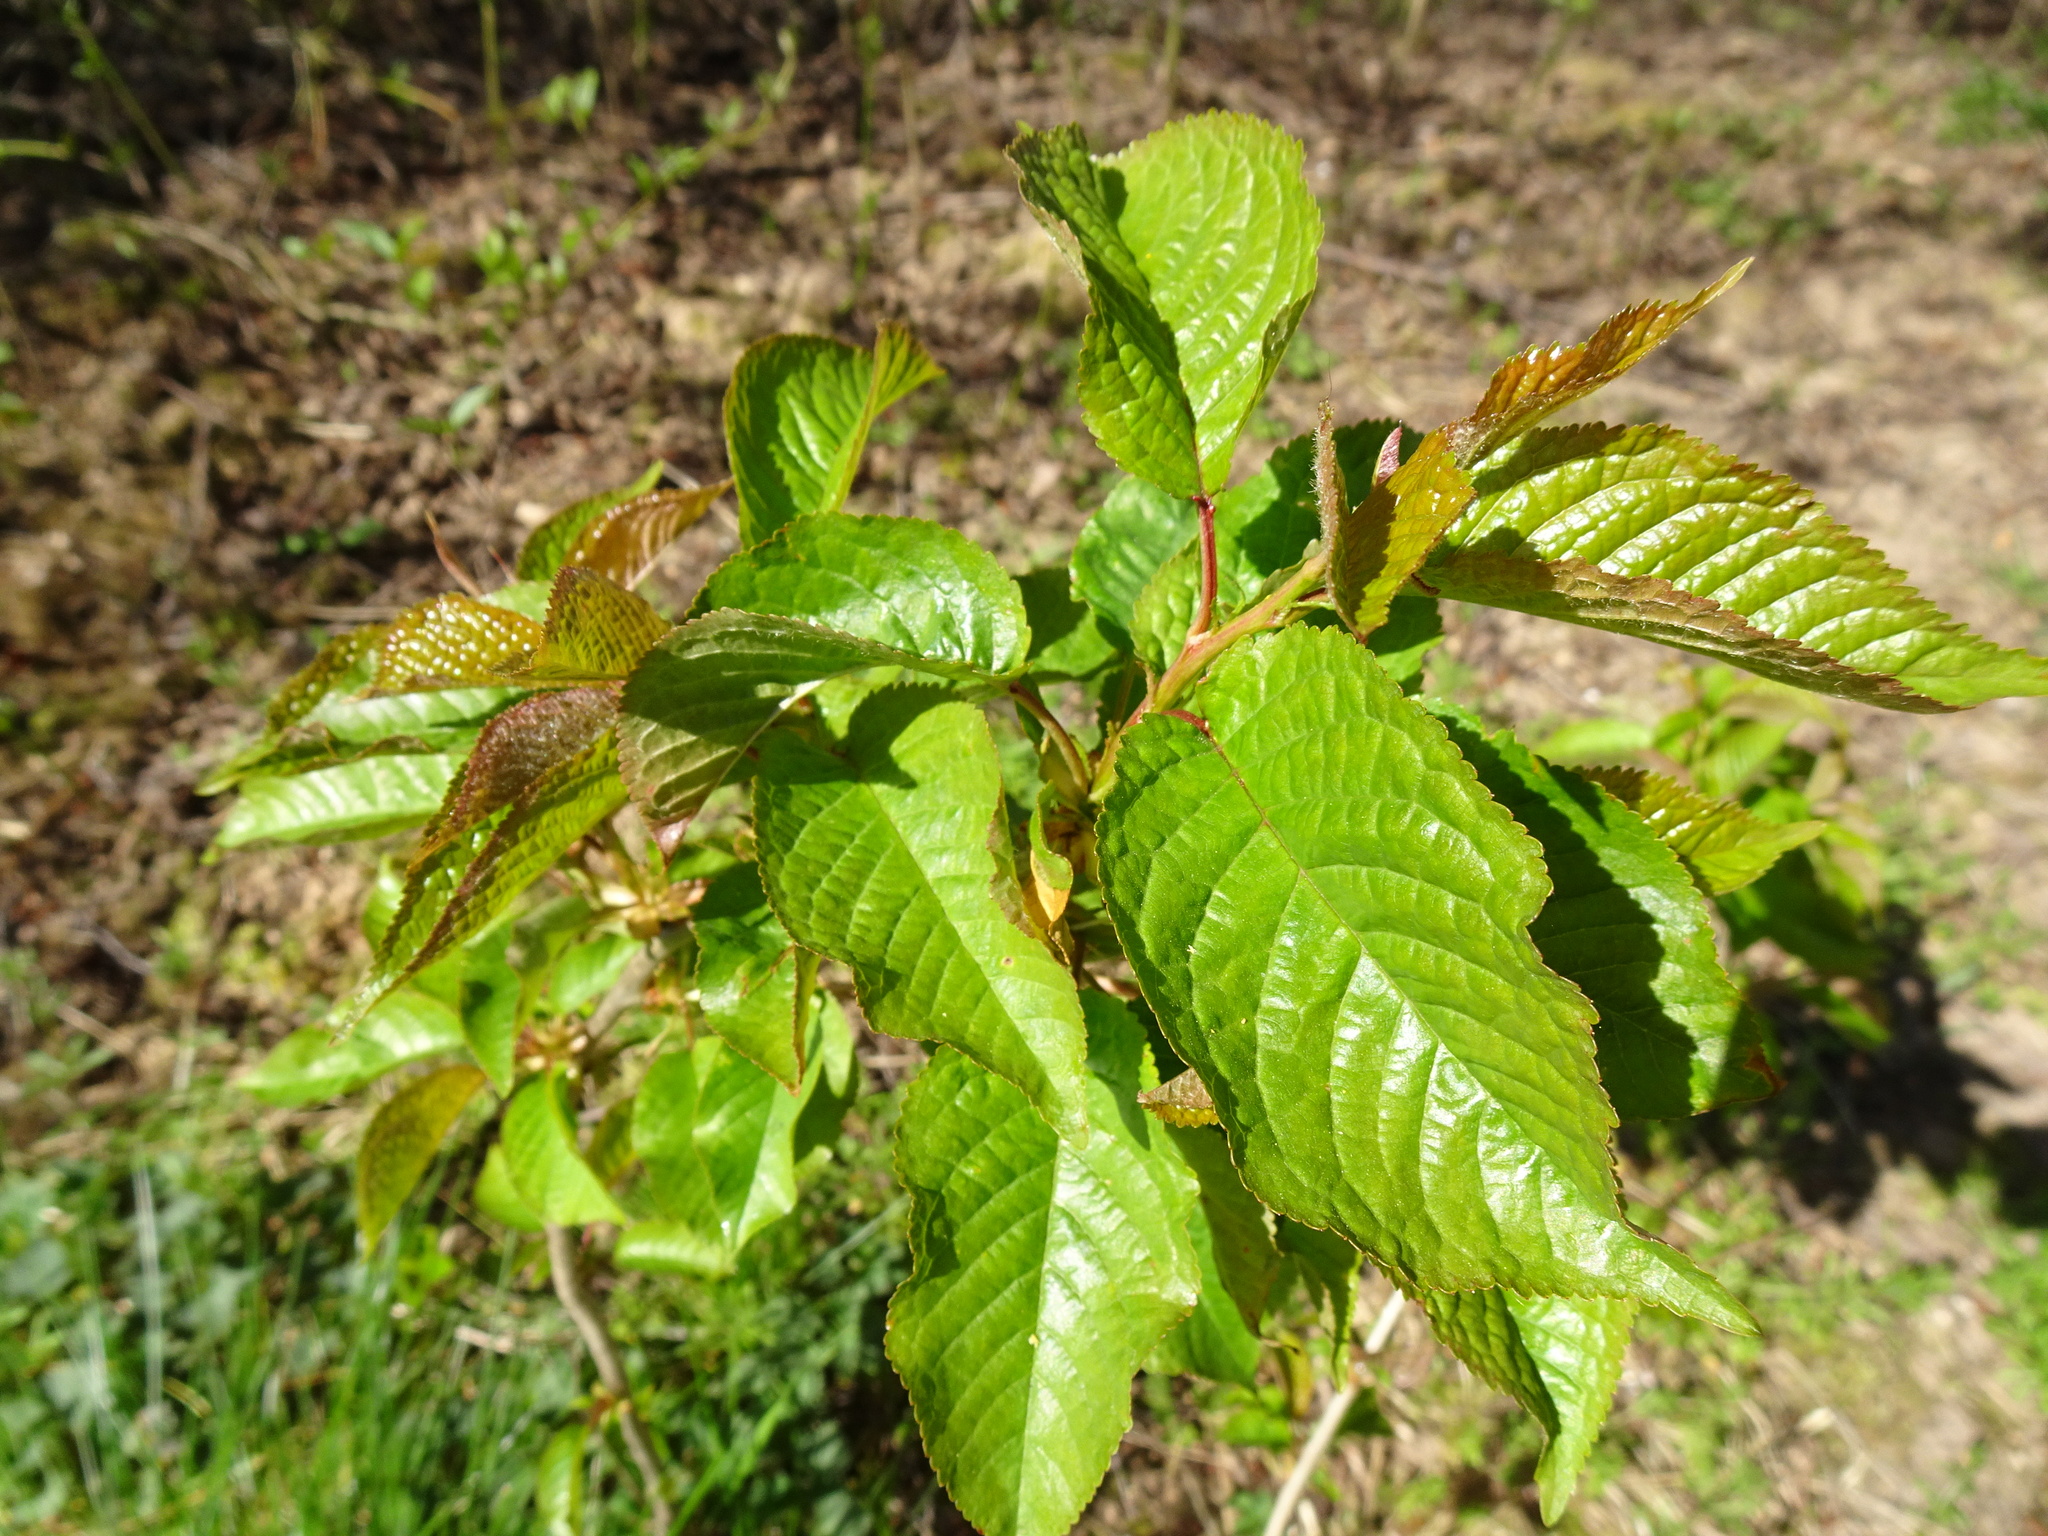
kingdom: Plantae
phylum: Tracheophyta
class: Magnoliopsida
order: Rosales
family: Rosaceae
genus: Prunus
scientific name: Prunus avium
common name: Sweet cherry
